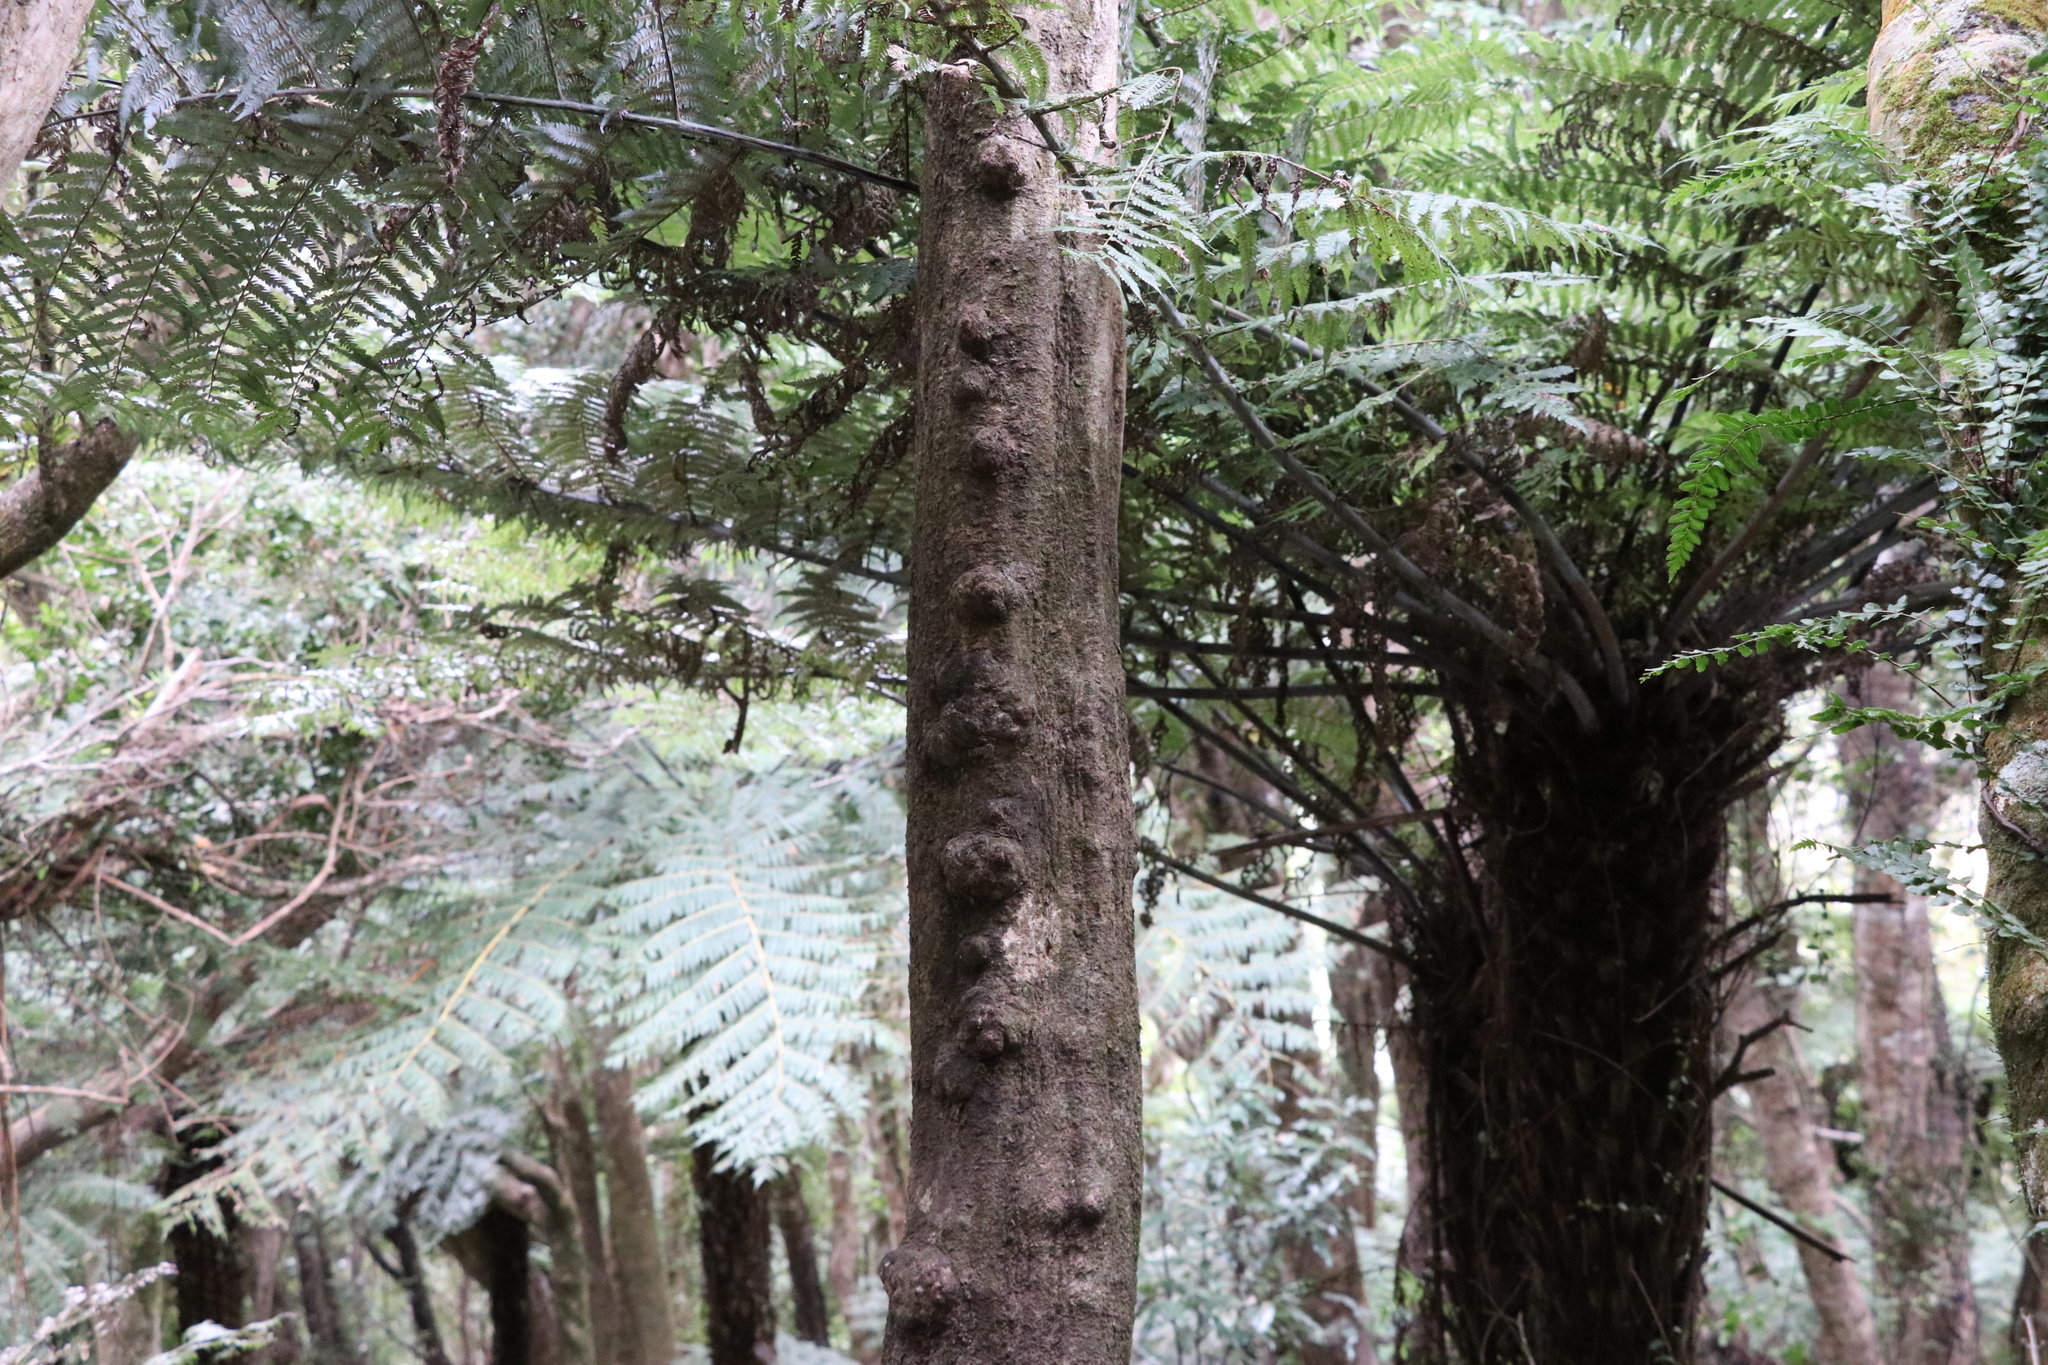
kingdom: Plantae
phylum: Tracheophyta
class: Magnoliopsida
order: Apiales
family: Araliaceae
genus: Pseudopanax
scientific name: Pseudopanax crassifolius
